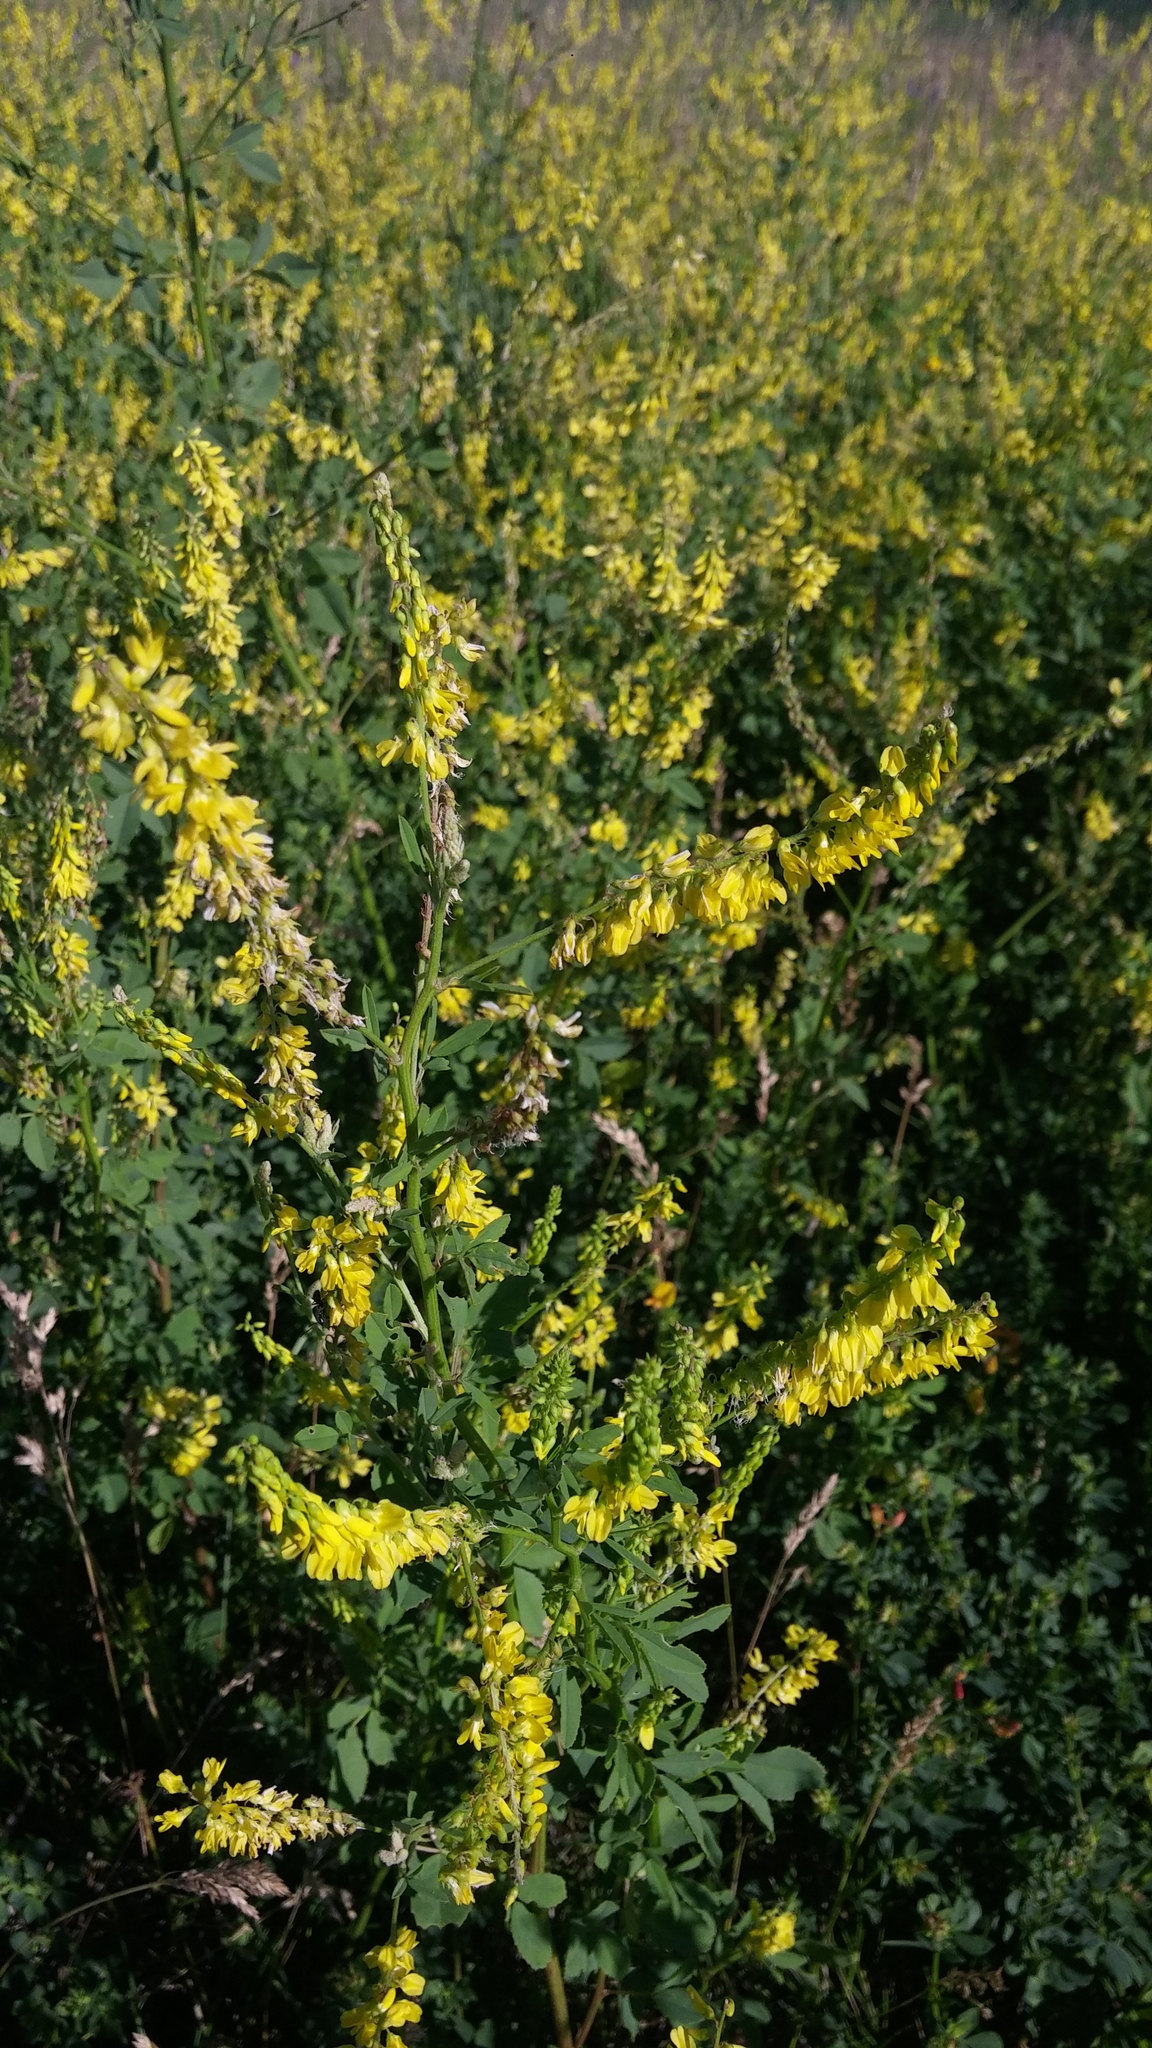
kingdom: Plantae
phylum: Tracheophyta
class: Magnoliopsida
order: Fabales
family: Fabaceae
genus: Melilotus
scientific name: Melilotus officinalis
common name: Sweetclover
